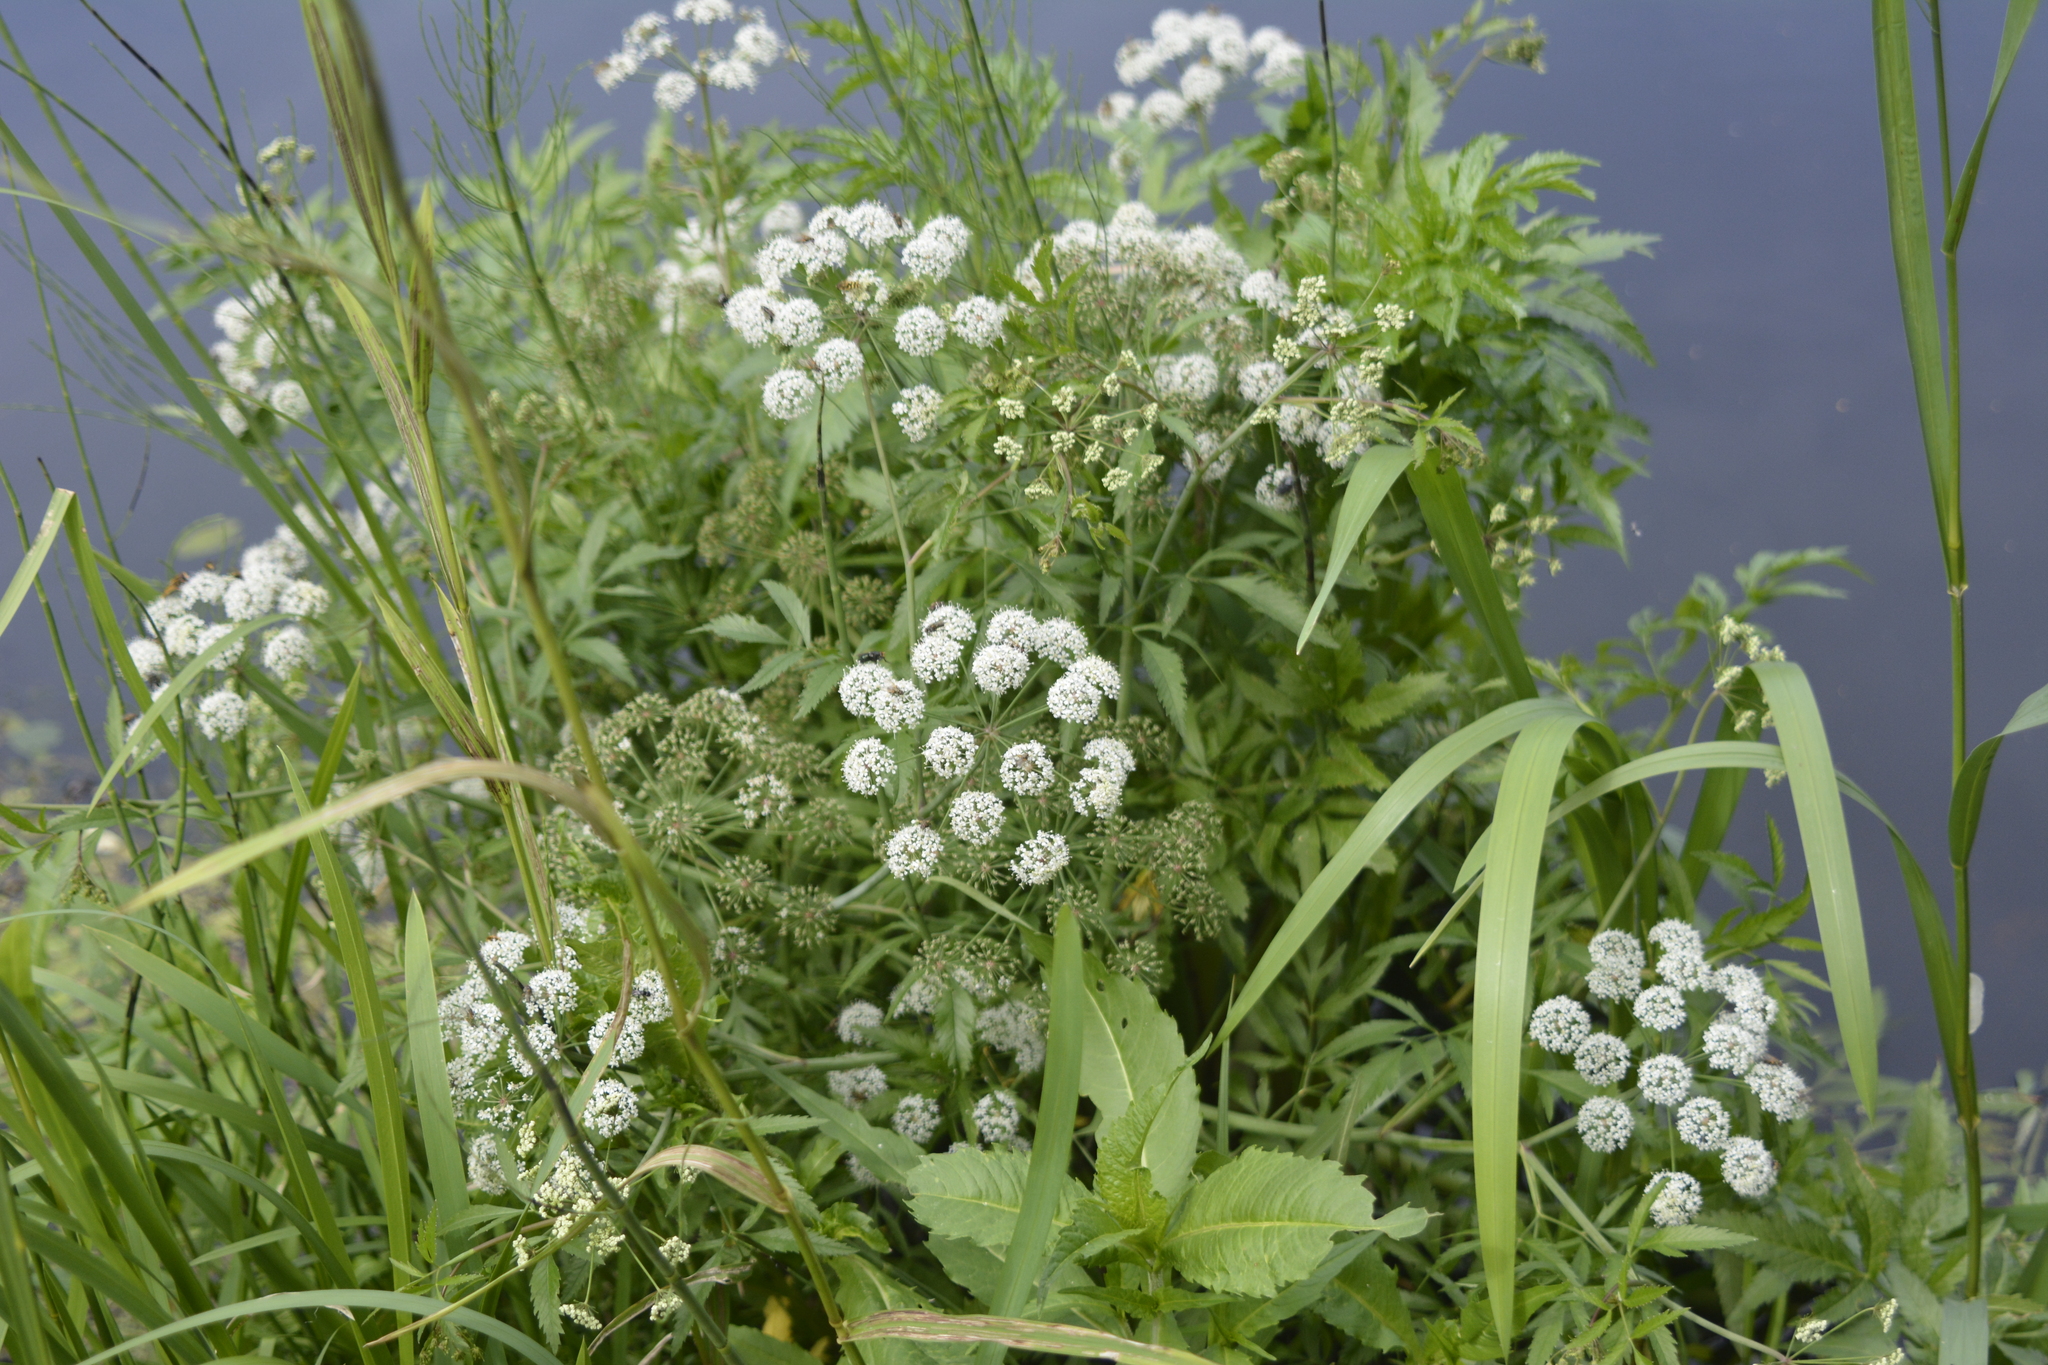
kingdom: Plantae
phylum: Tracheophyta
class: Magnoliopsida
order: Apiales
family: Apiaceae
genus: Cicuta
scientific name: Cicuta virosa
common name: Cowbane
